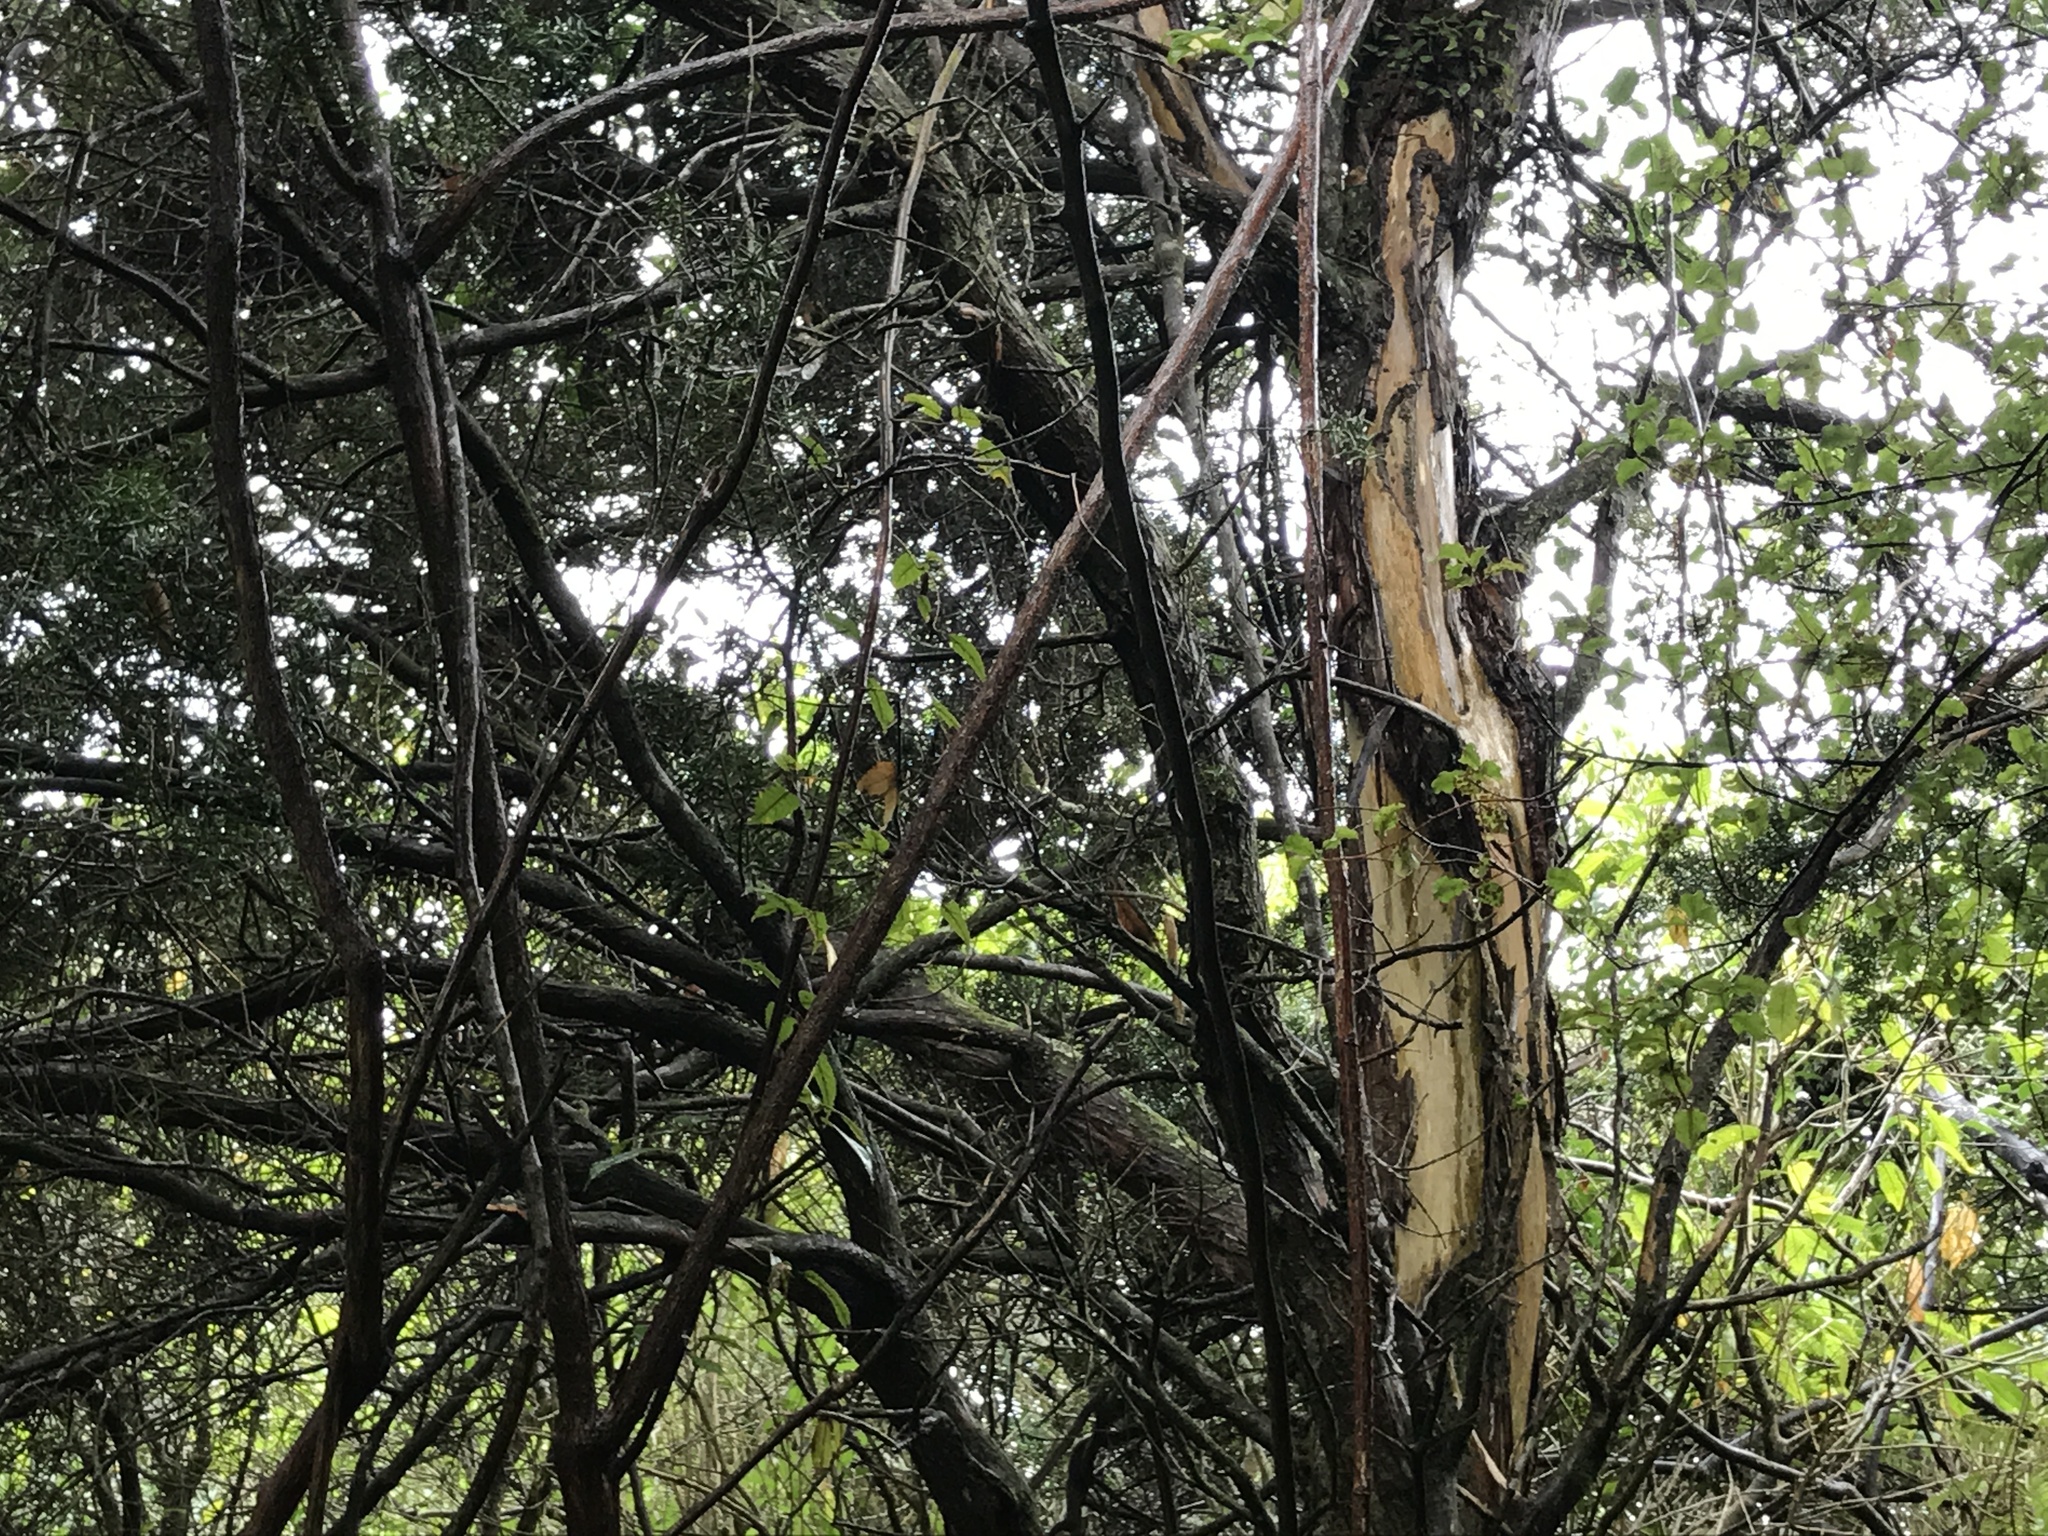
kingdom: Animalia
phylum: Chordata
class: Aves
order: Psittaciformes
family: Psittacidae
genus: Nestor
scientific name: Nestor meridionalis
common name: New zealand kaka
